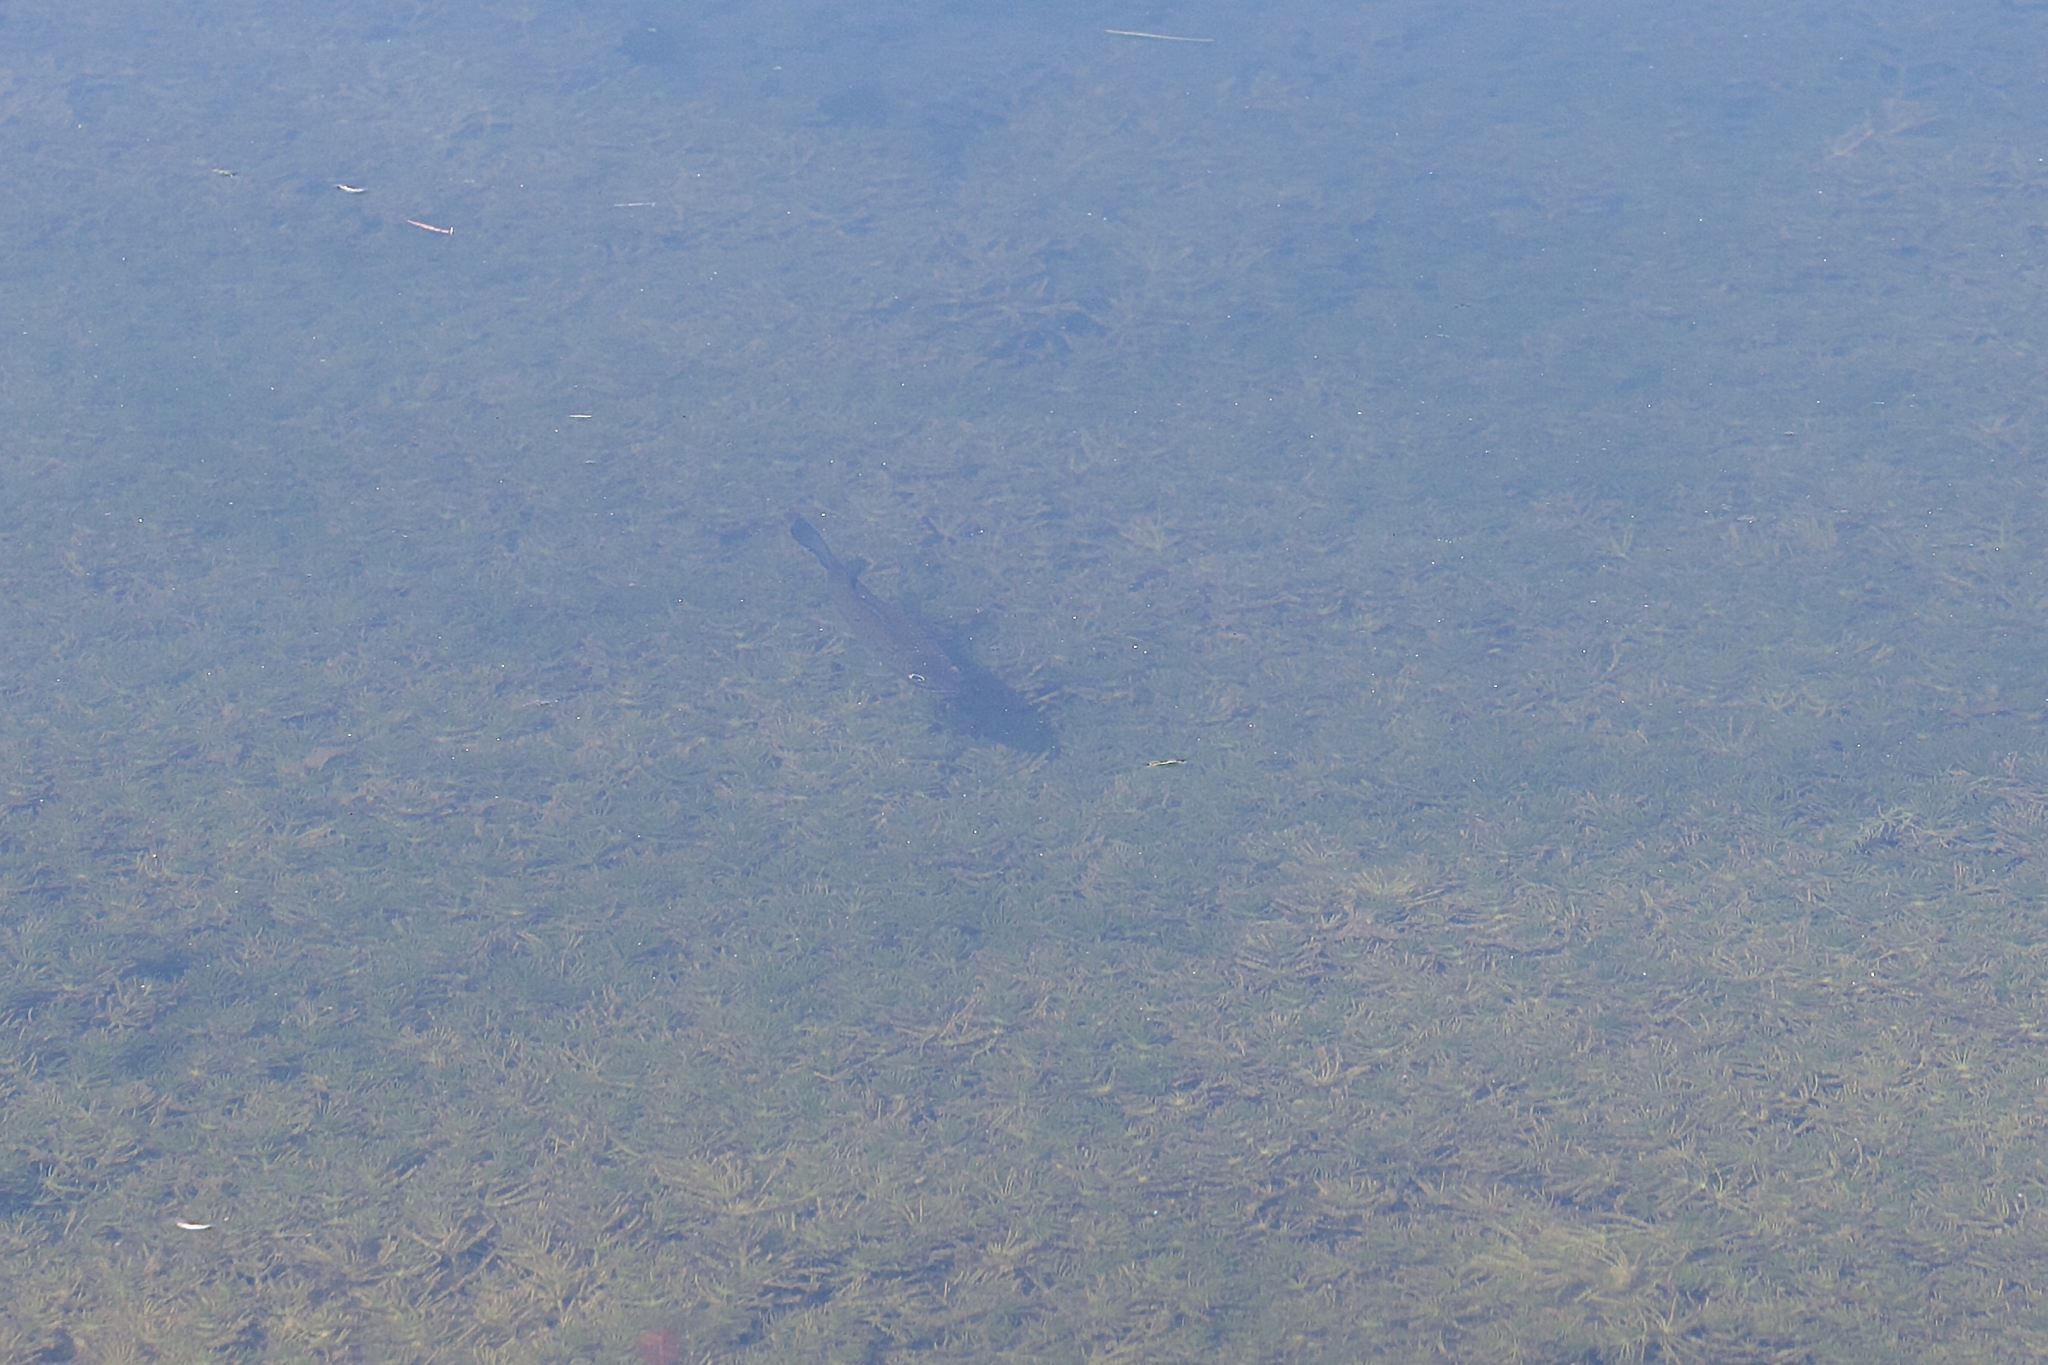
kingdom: Animalia
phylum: Chordata
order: Perciformes
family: Centrarchidae
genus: Micropterus
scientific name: Micropterus salmoides
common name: Largemouth bass
